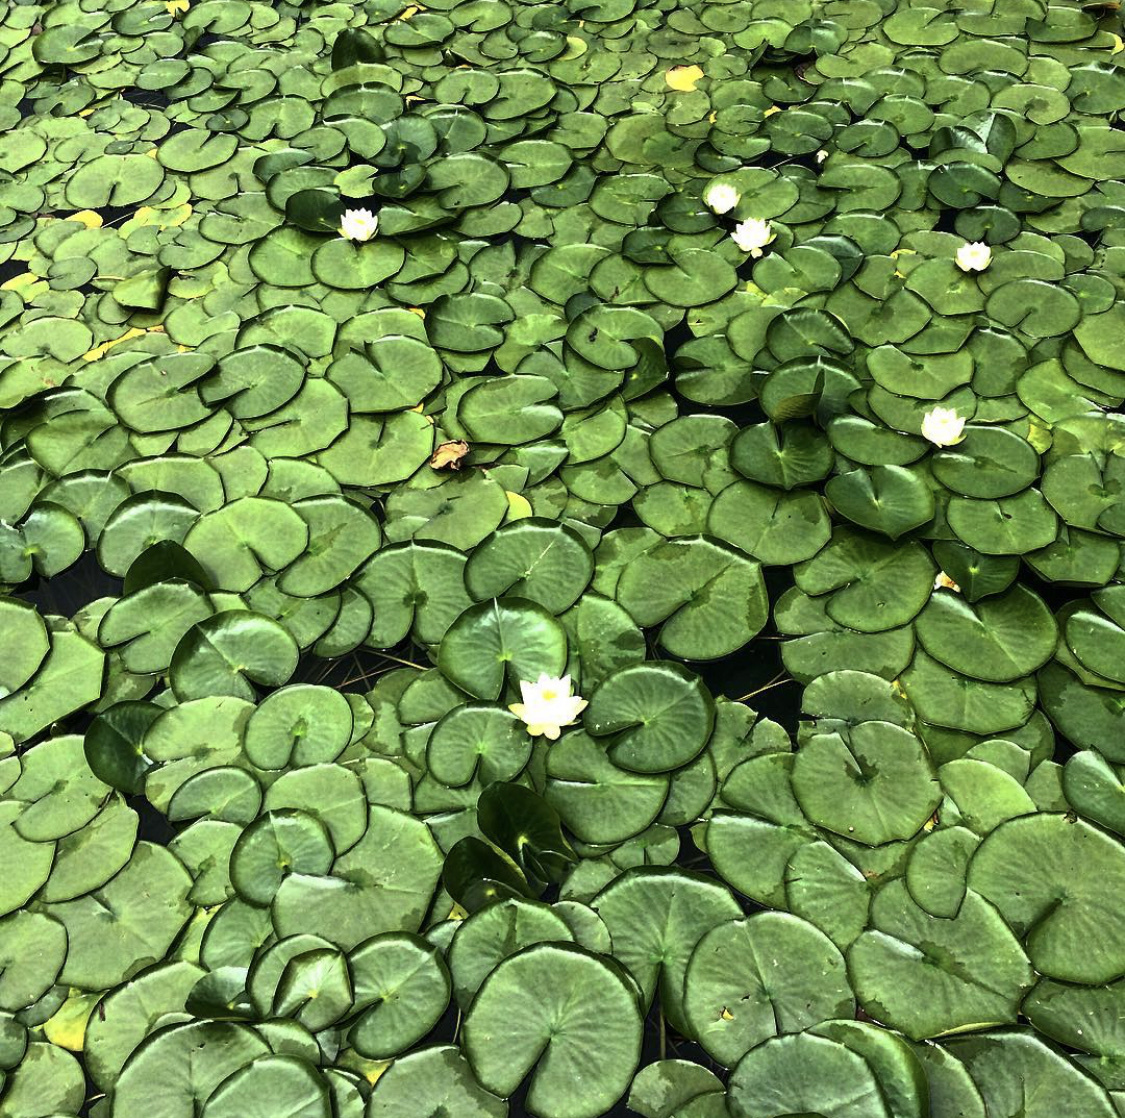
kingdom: Plantae
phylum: Tracheophyta
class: Magnoliopsida
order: Nymphaeales
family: Nymphaeaceae
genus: Nymphaea
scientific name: Nymphaea odorata
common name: Fragrant water-lily
